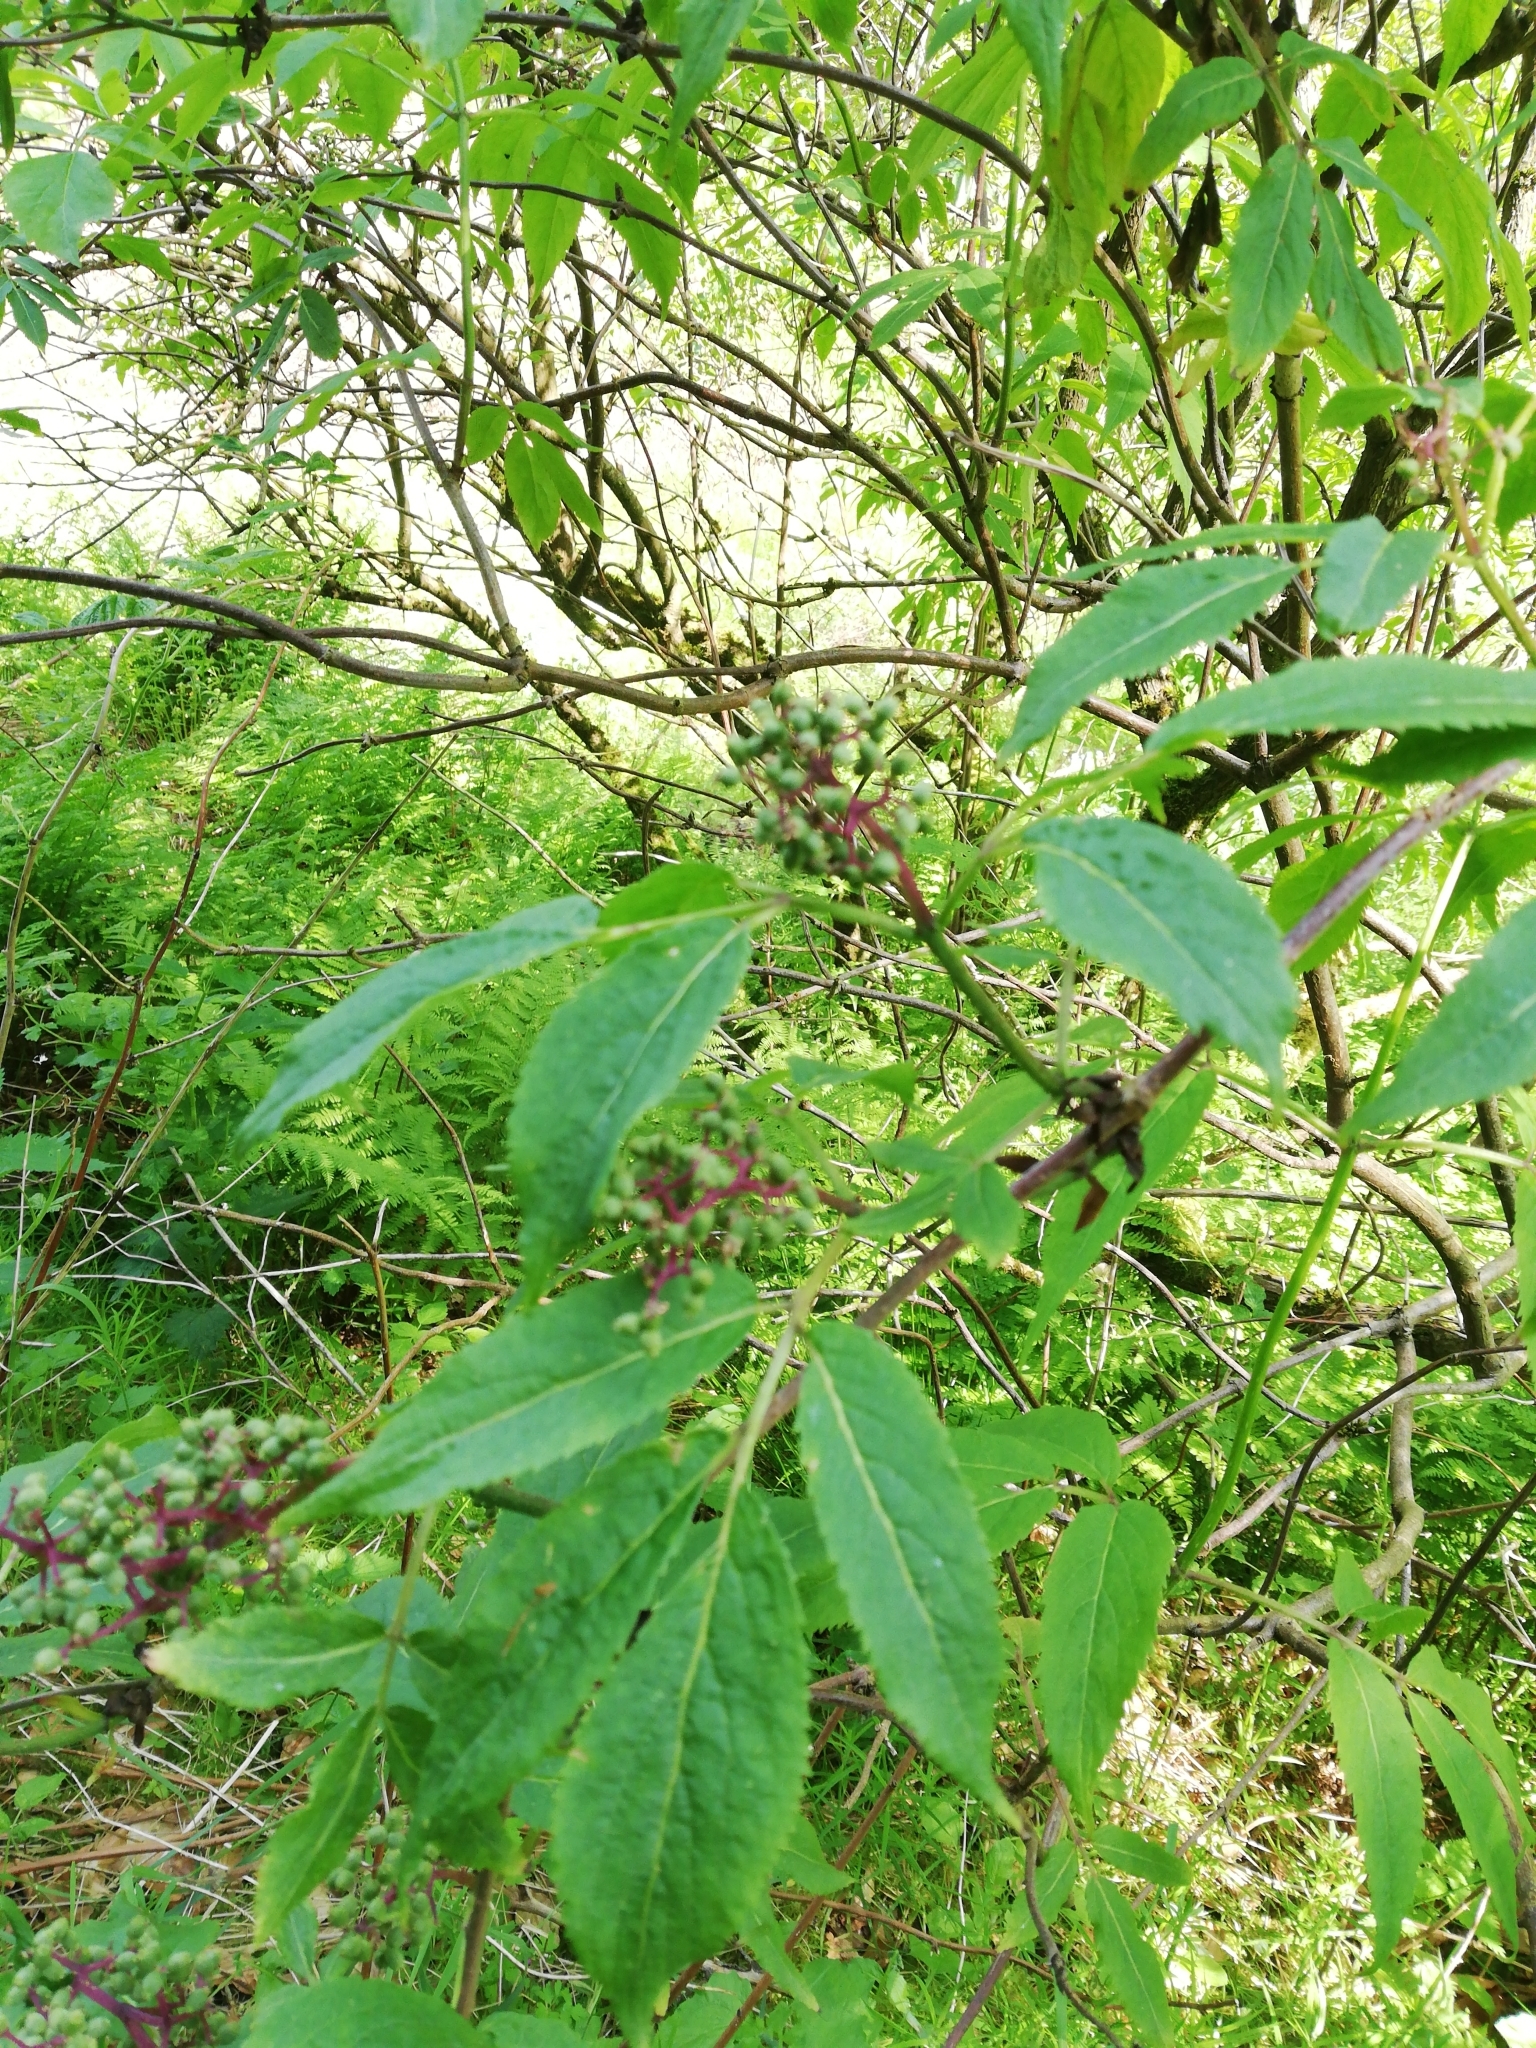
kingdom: Plantae
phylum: Tracheophyta
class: Magnoliopsida
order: Dipsacales
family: Viburnaceae
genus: Sambucus
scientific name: Sambucus racemosa
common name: Red-berried elder
